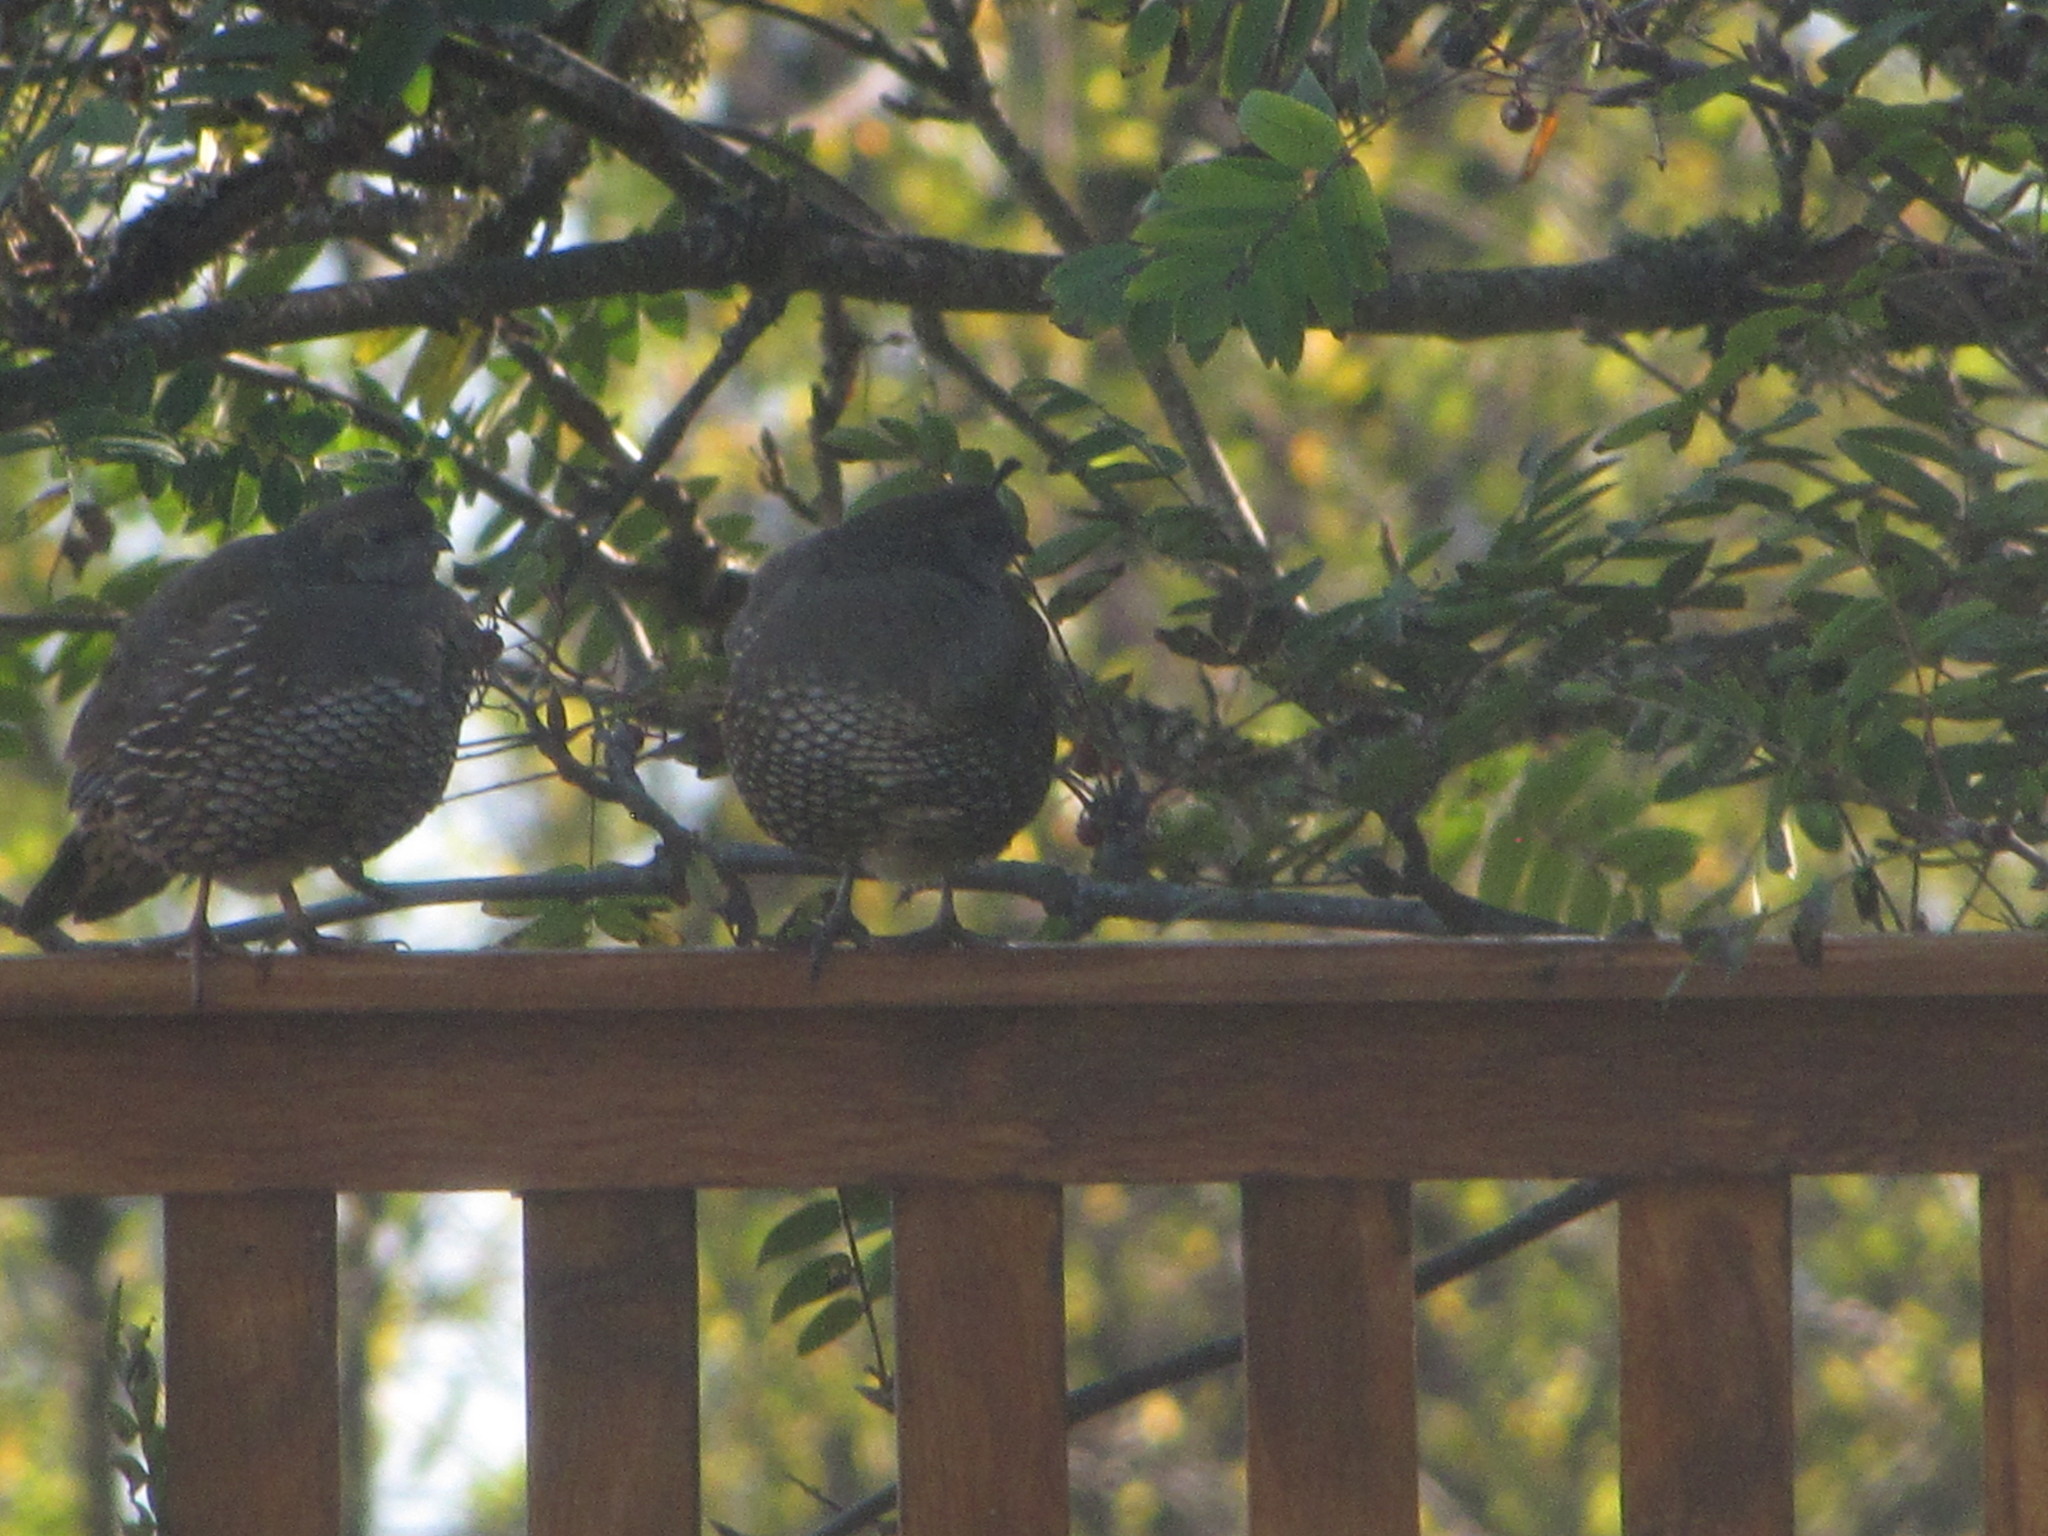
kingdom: Animalia
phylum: Chordata
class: Aves
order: Galliformes
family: Odontophoridae
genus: Callipepla
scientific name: Callipepla californica
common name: California quail
